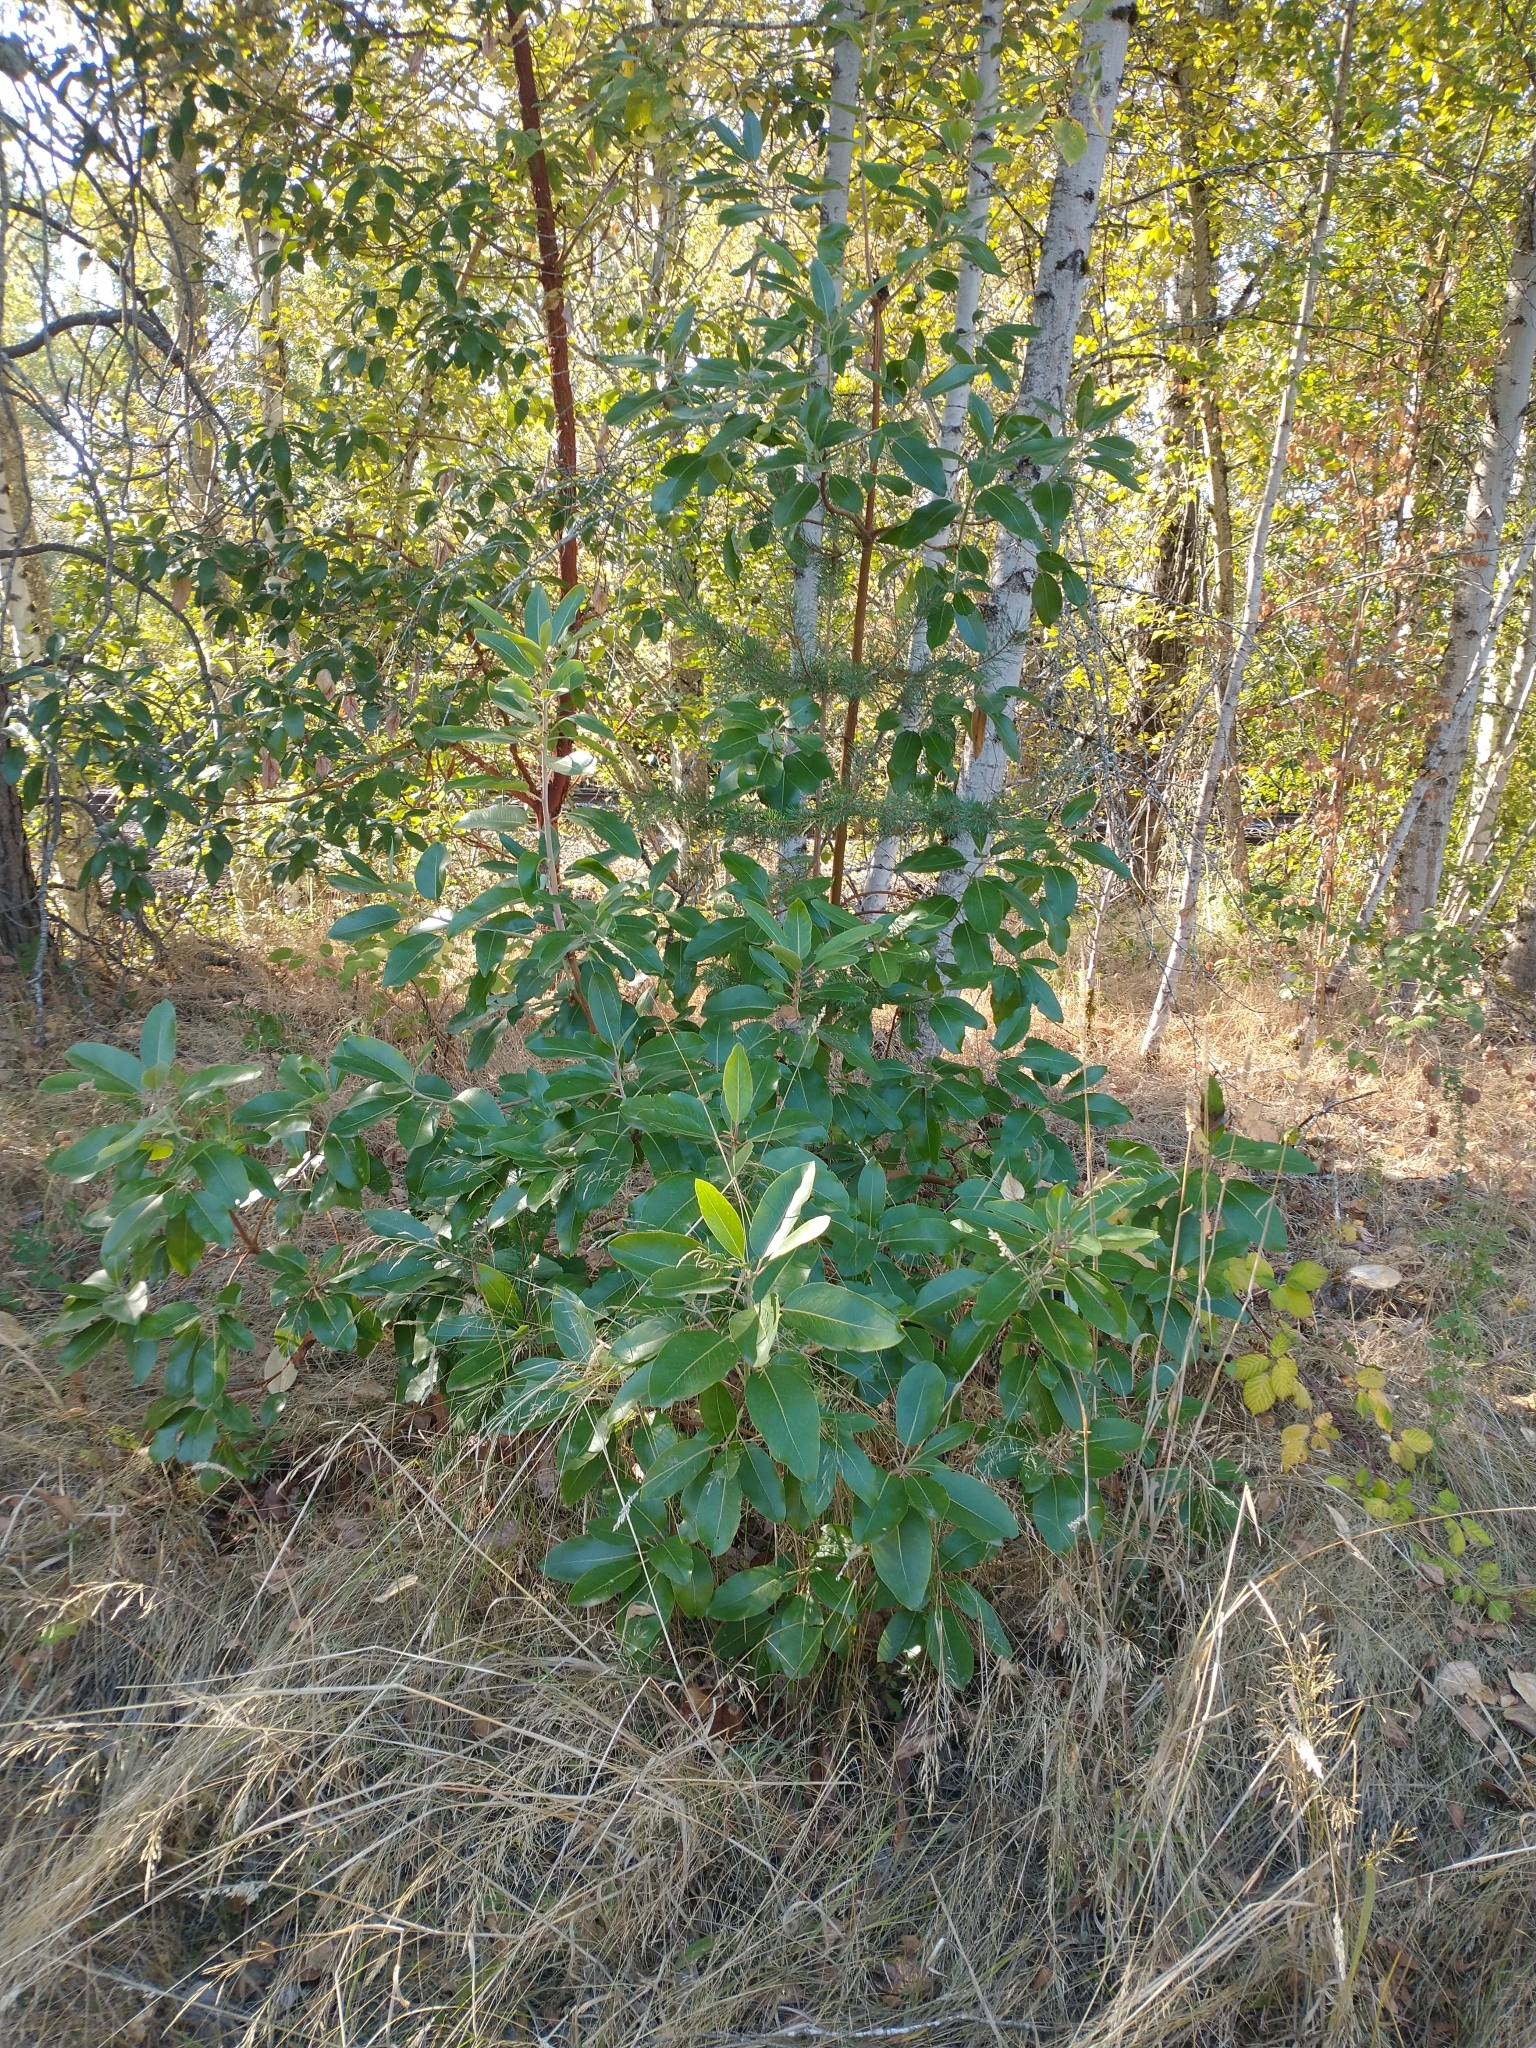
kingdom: Plantae
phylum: Tracheophyta
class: Magnoliopsida
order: Ericales
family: Ericaceae
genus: Arbutus
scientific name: Arbutus menziesii
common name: Pacific madrone
